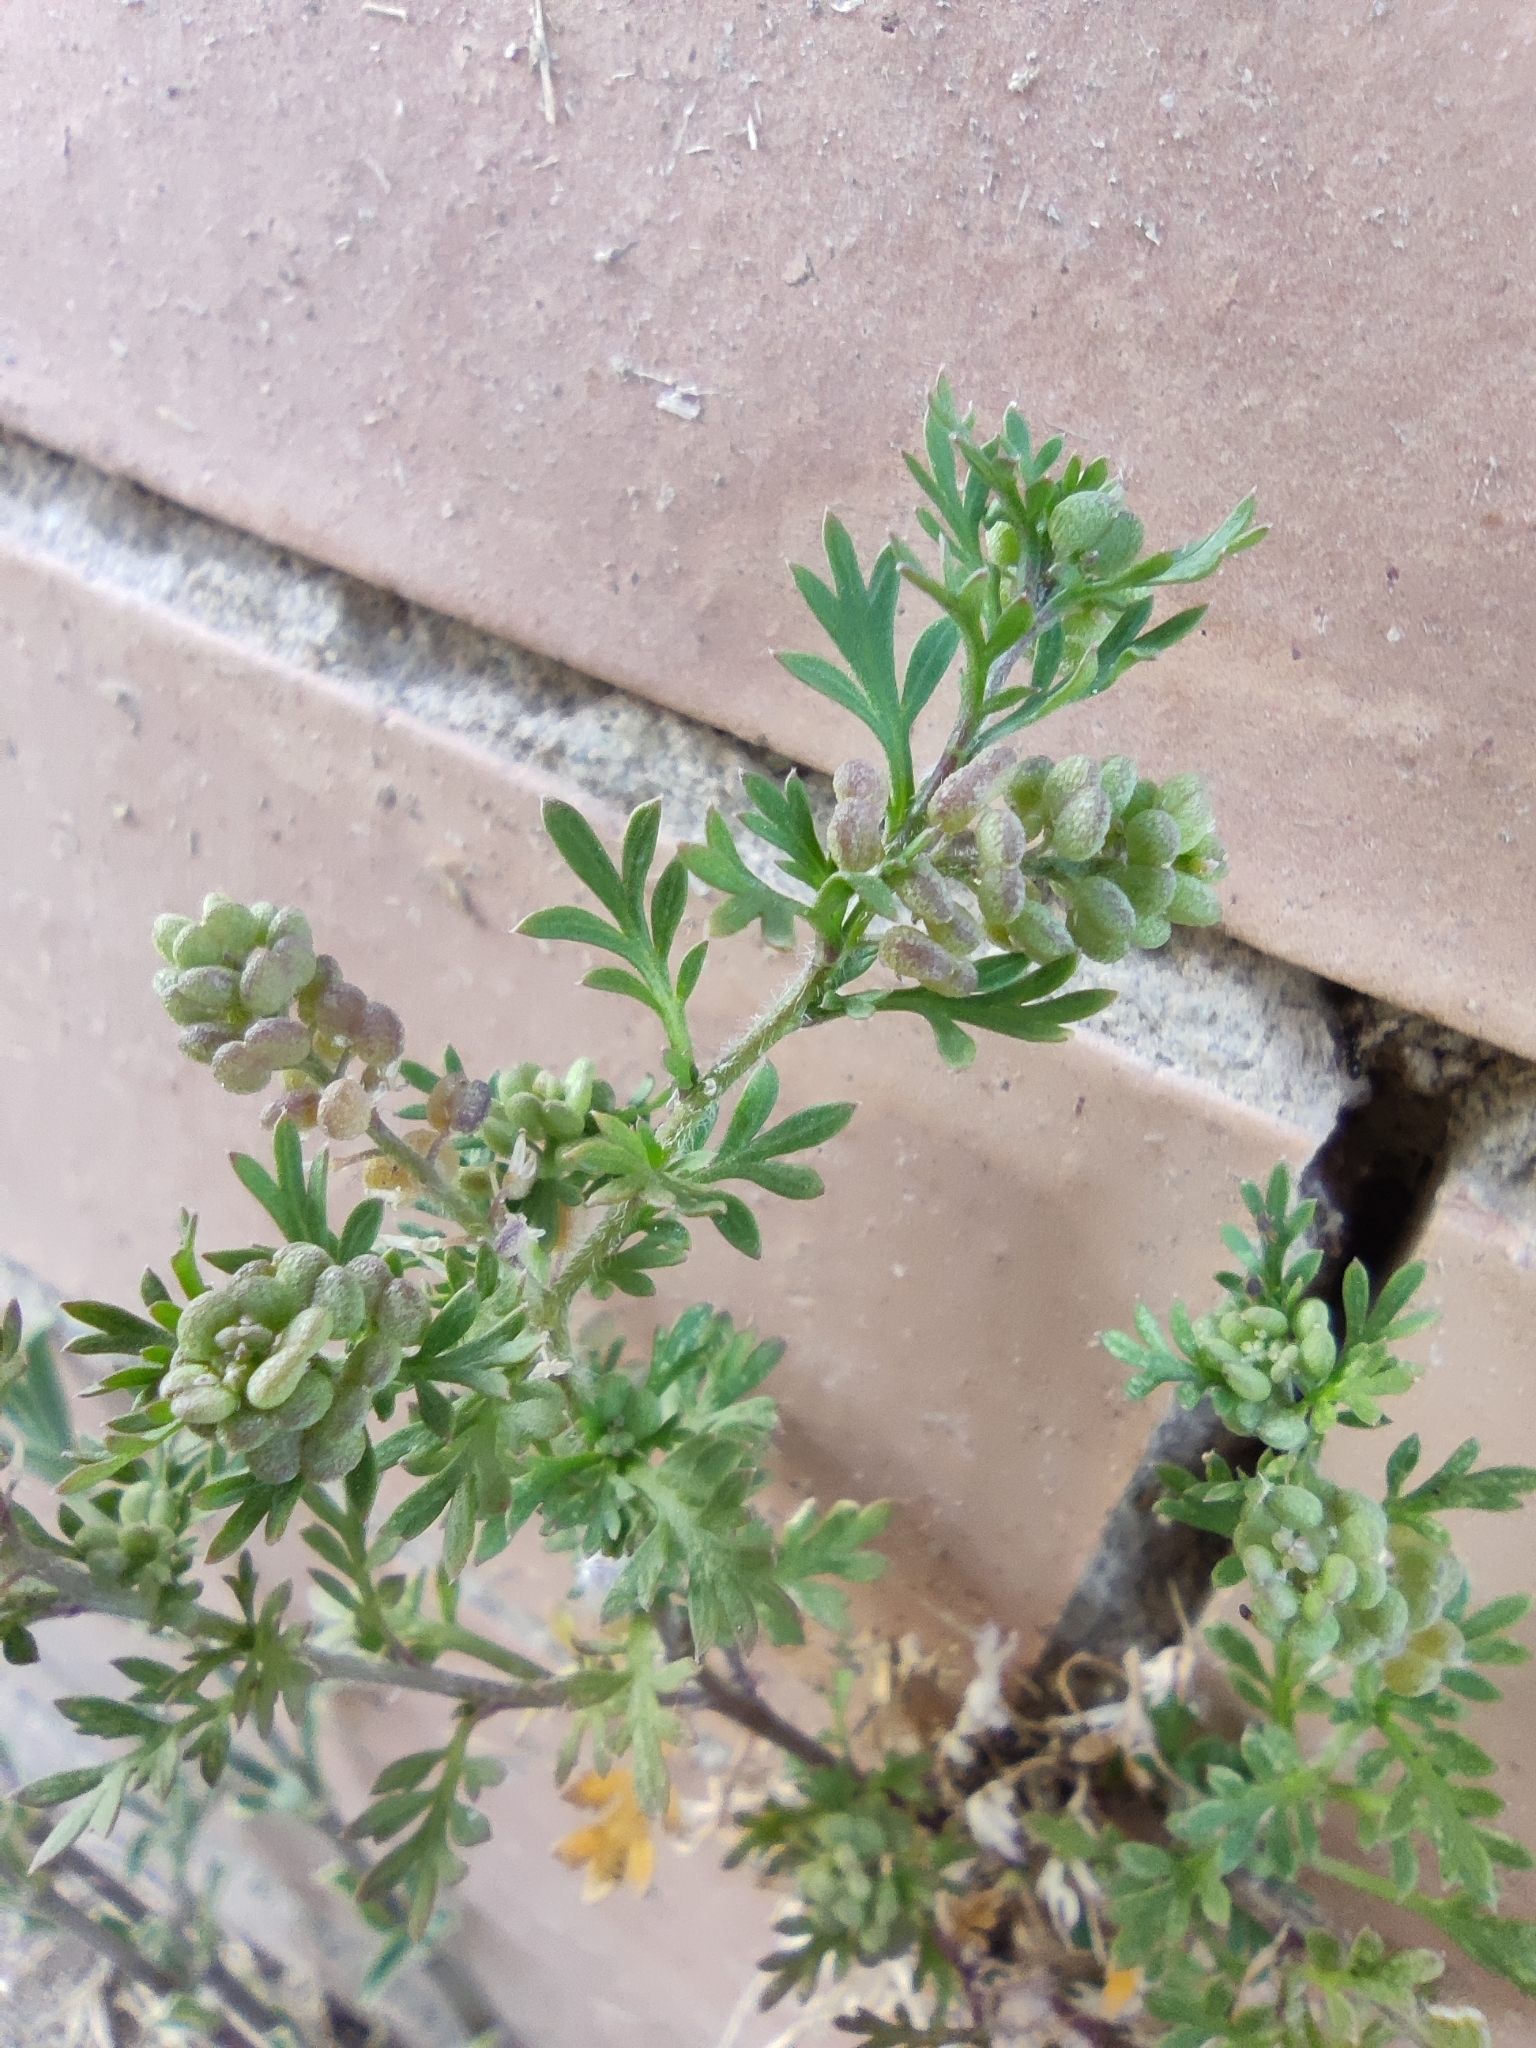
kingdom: Plantae
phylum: Tracheophyta
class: Magnoliopsida
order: Brassicales
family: Brassicaceae
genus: Lepidium
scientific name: Lepidium didymum
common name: Lesser swinecress
